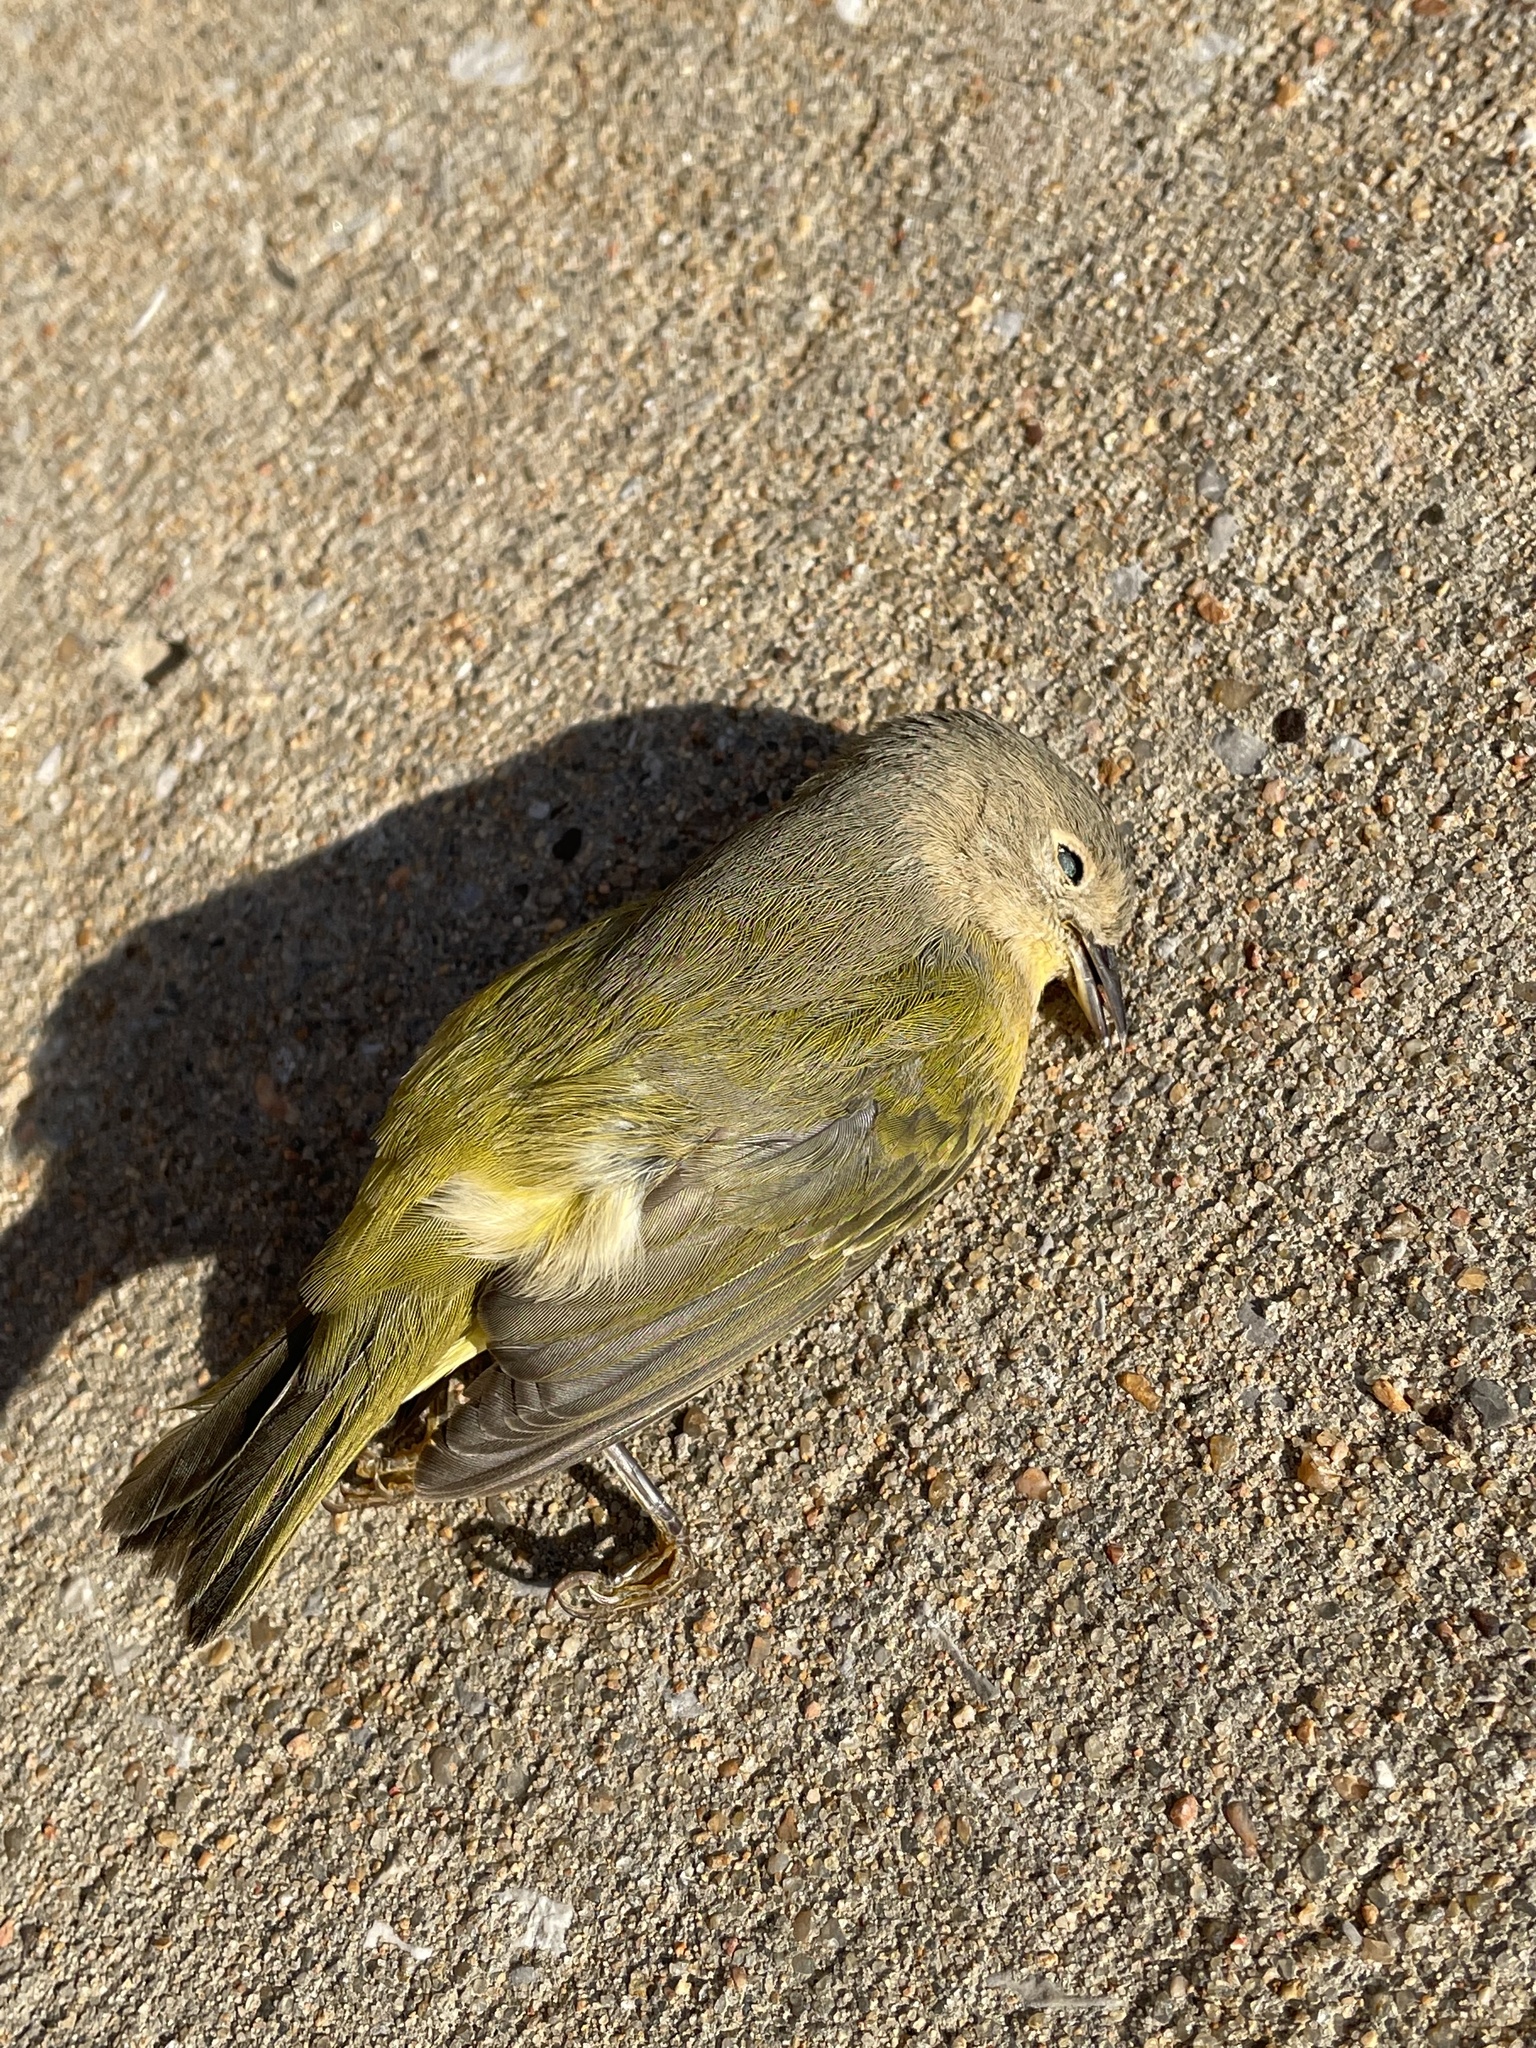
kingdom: Animalia
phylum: Chordata
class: Aves
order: Passeriformes
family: Parulidae
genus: Leiothlypis
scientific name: Leiothlypis ruficapilla
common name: Nashville warbler
